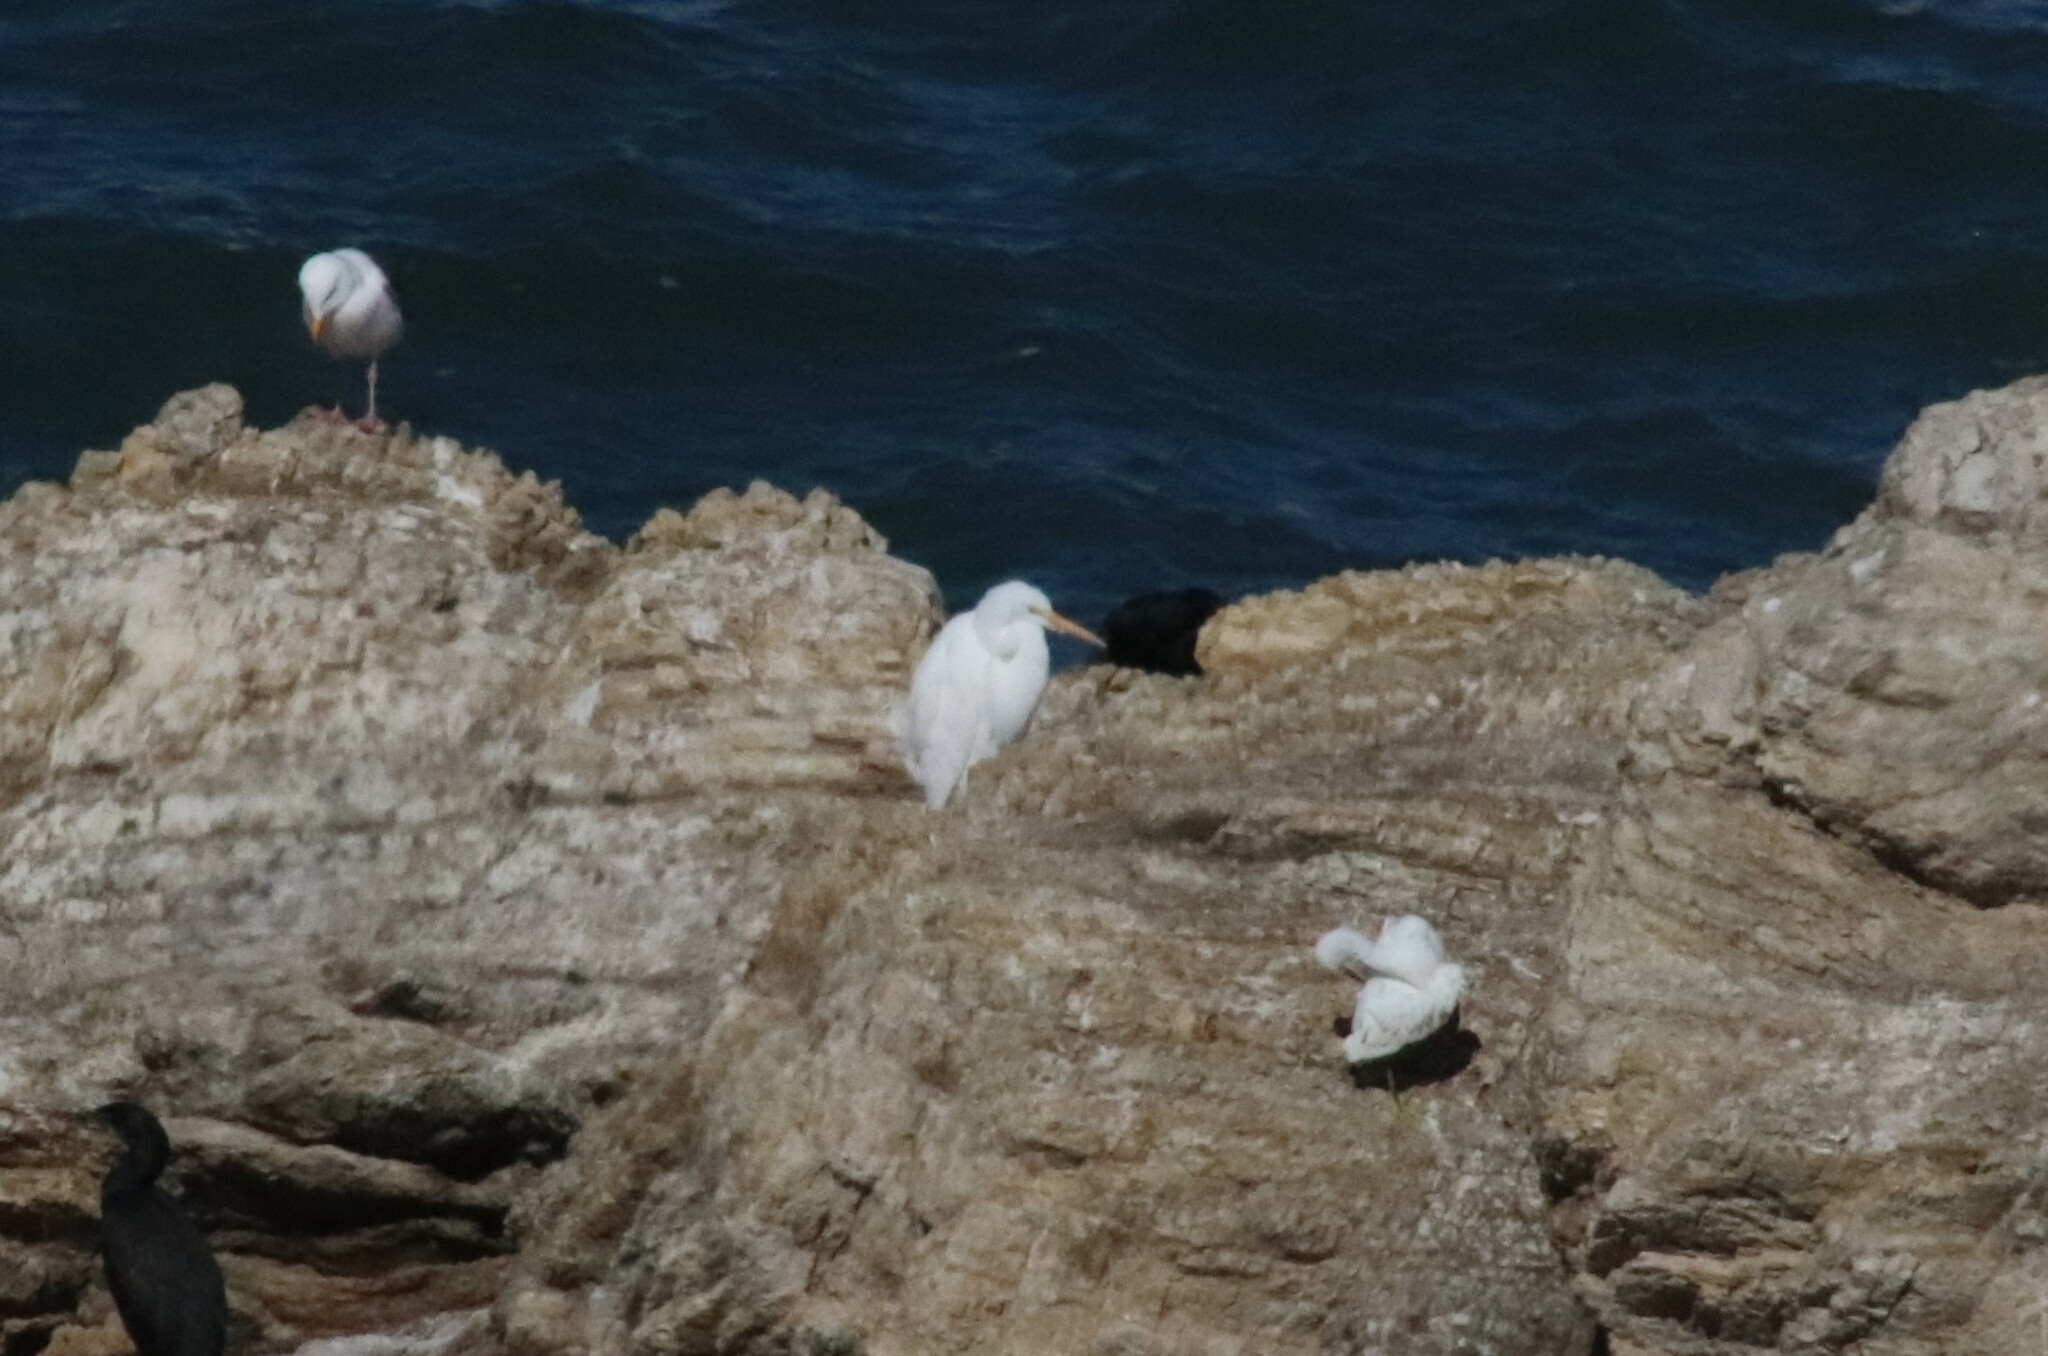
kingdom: Animalia
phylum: Chordata
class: Aves
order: Pelecaniformes
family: Ardeidae
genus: Ardea
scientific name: Ardea alba
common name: Great egret
